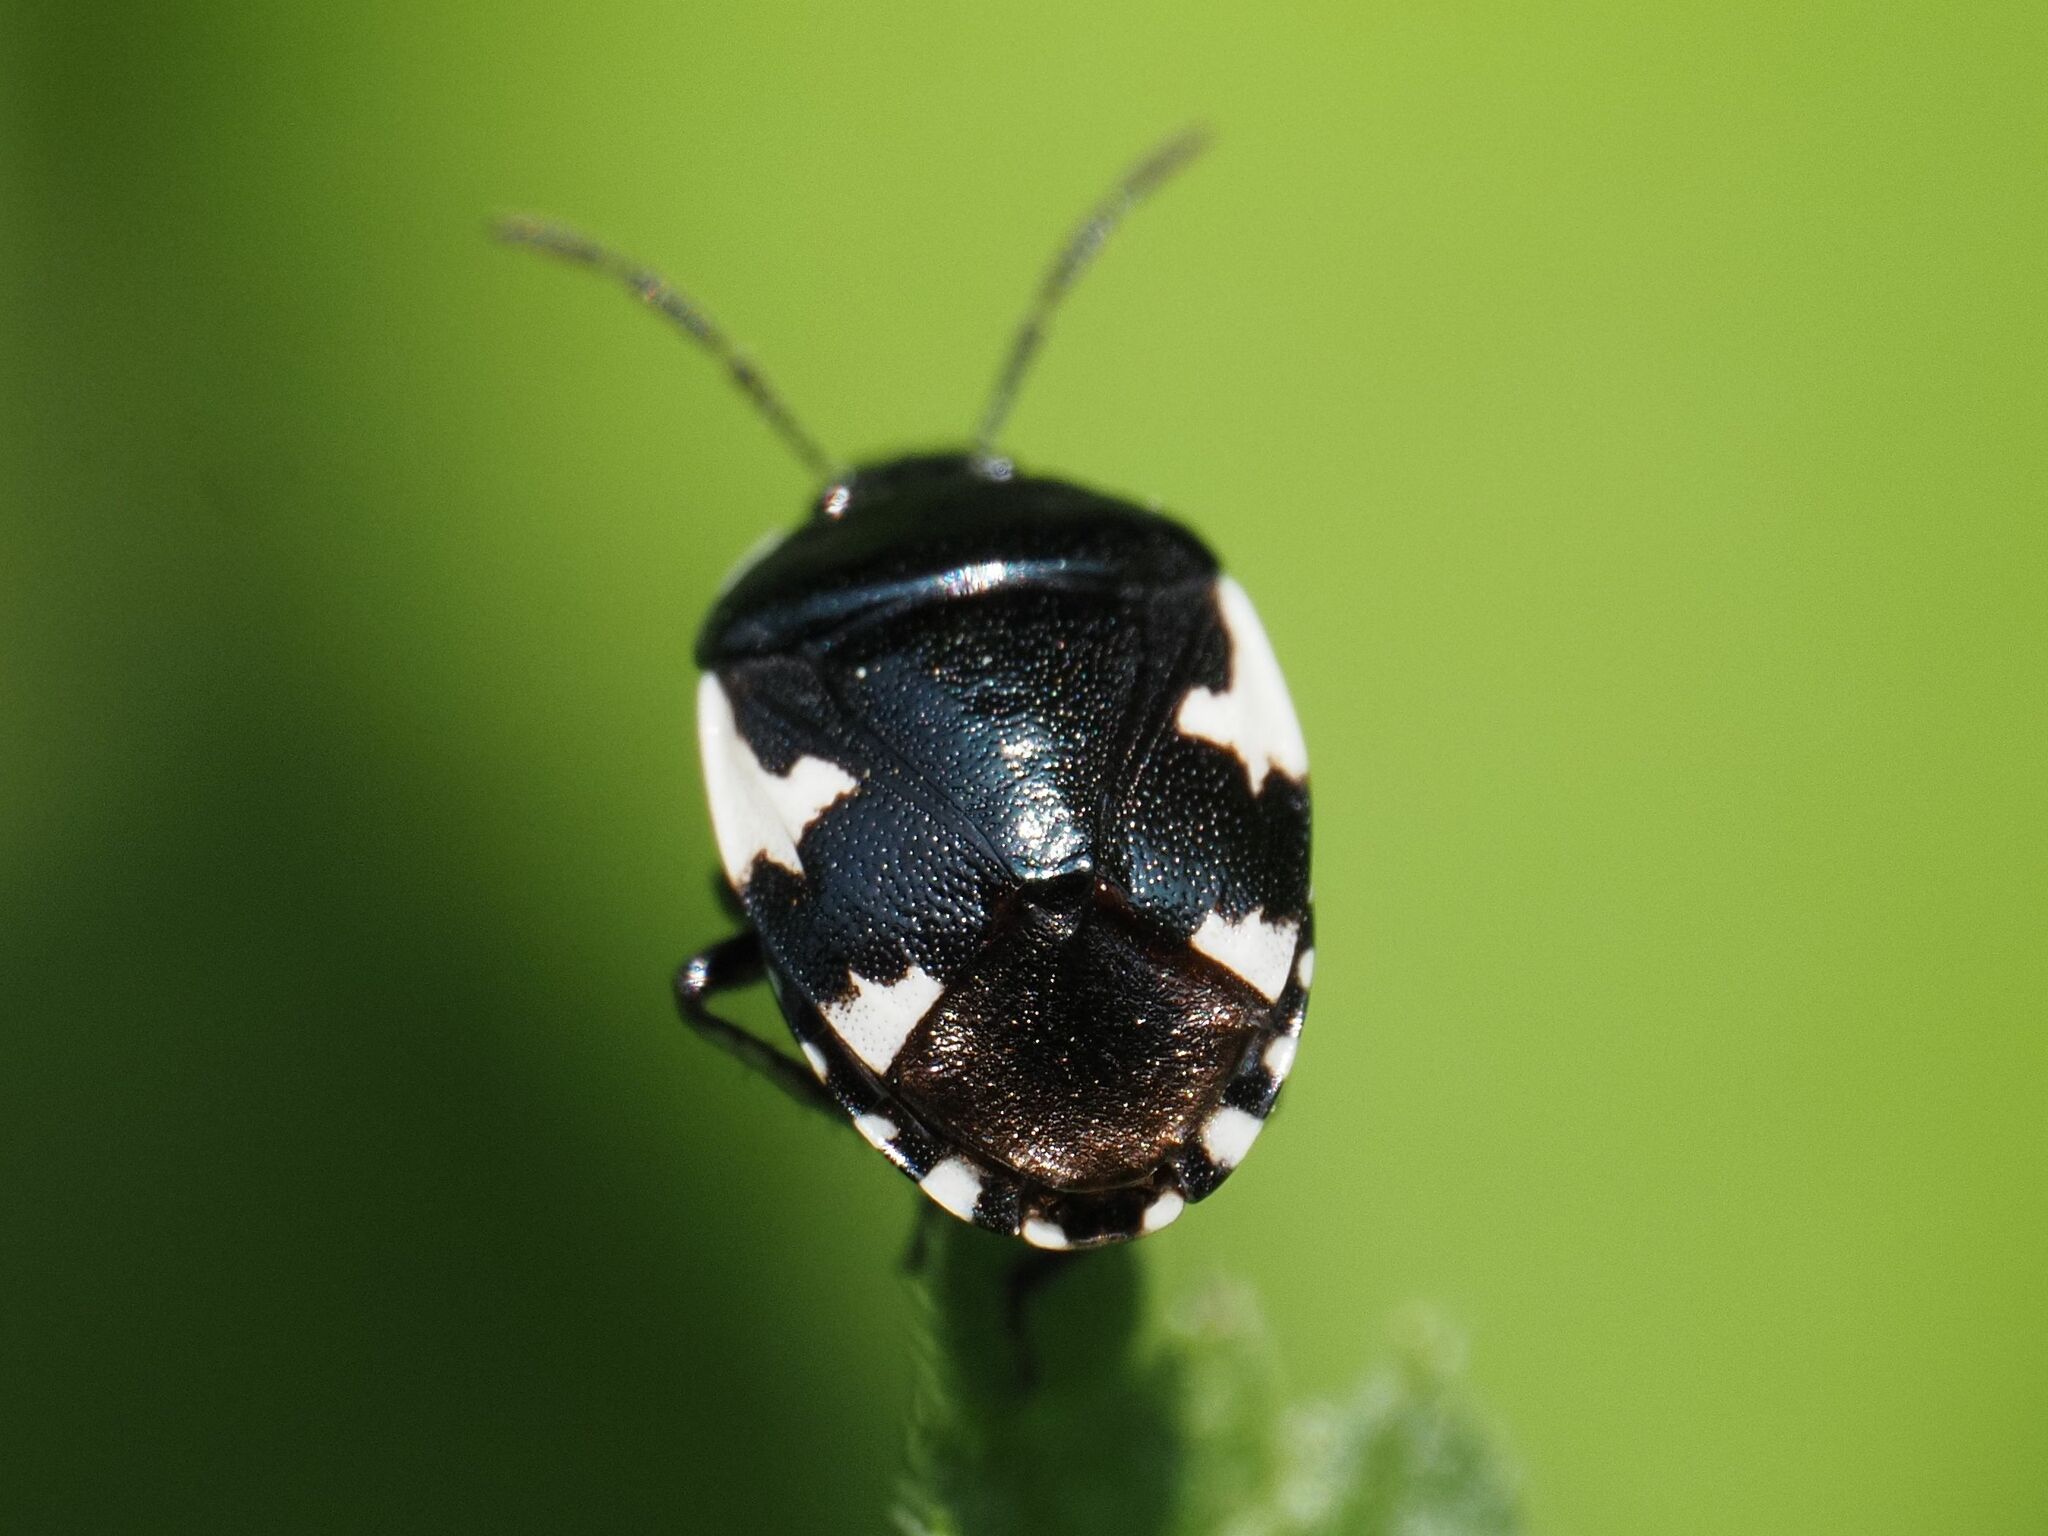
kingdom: Animalia
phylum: Arthropoda
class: Insecta
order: Hemiptera
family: Cydnidae
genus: Tritomegas
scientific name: Tritomegas sexmaculatus
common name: Rambur's pied shieldbug
